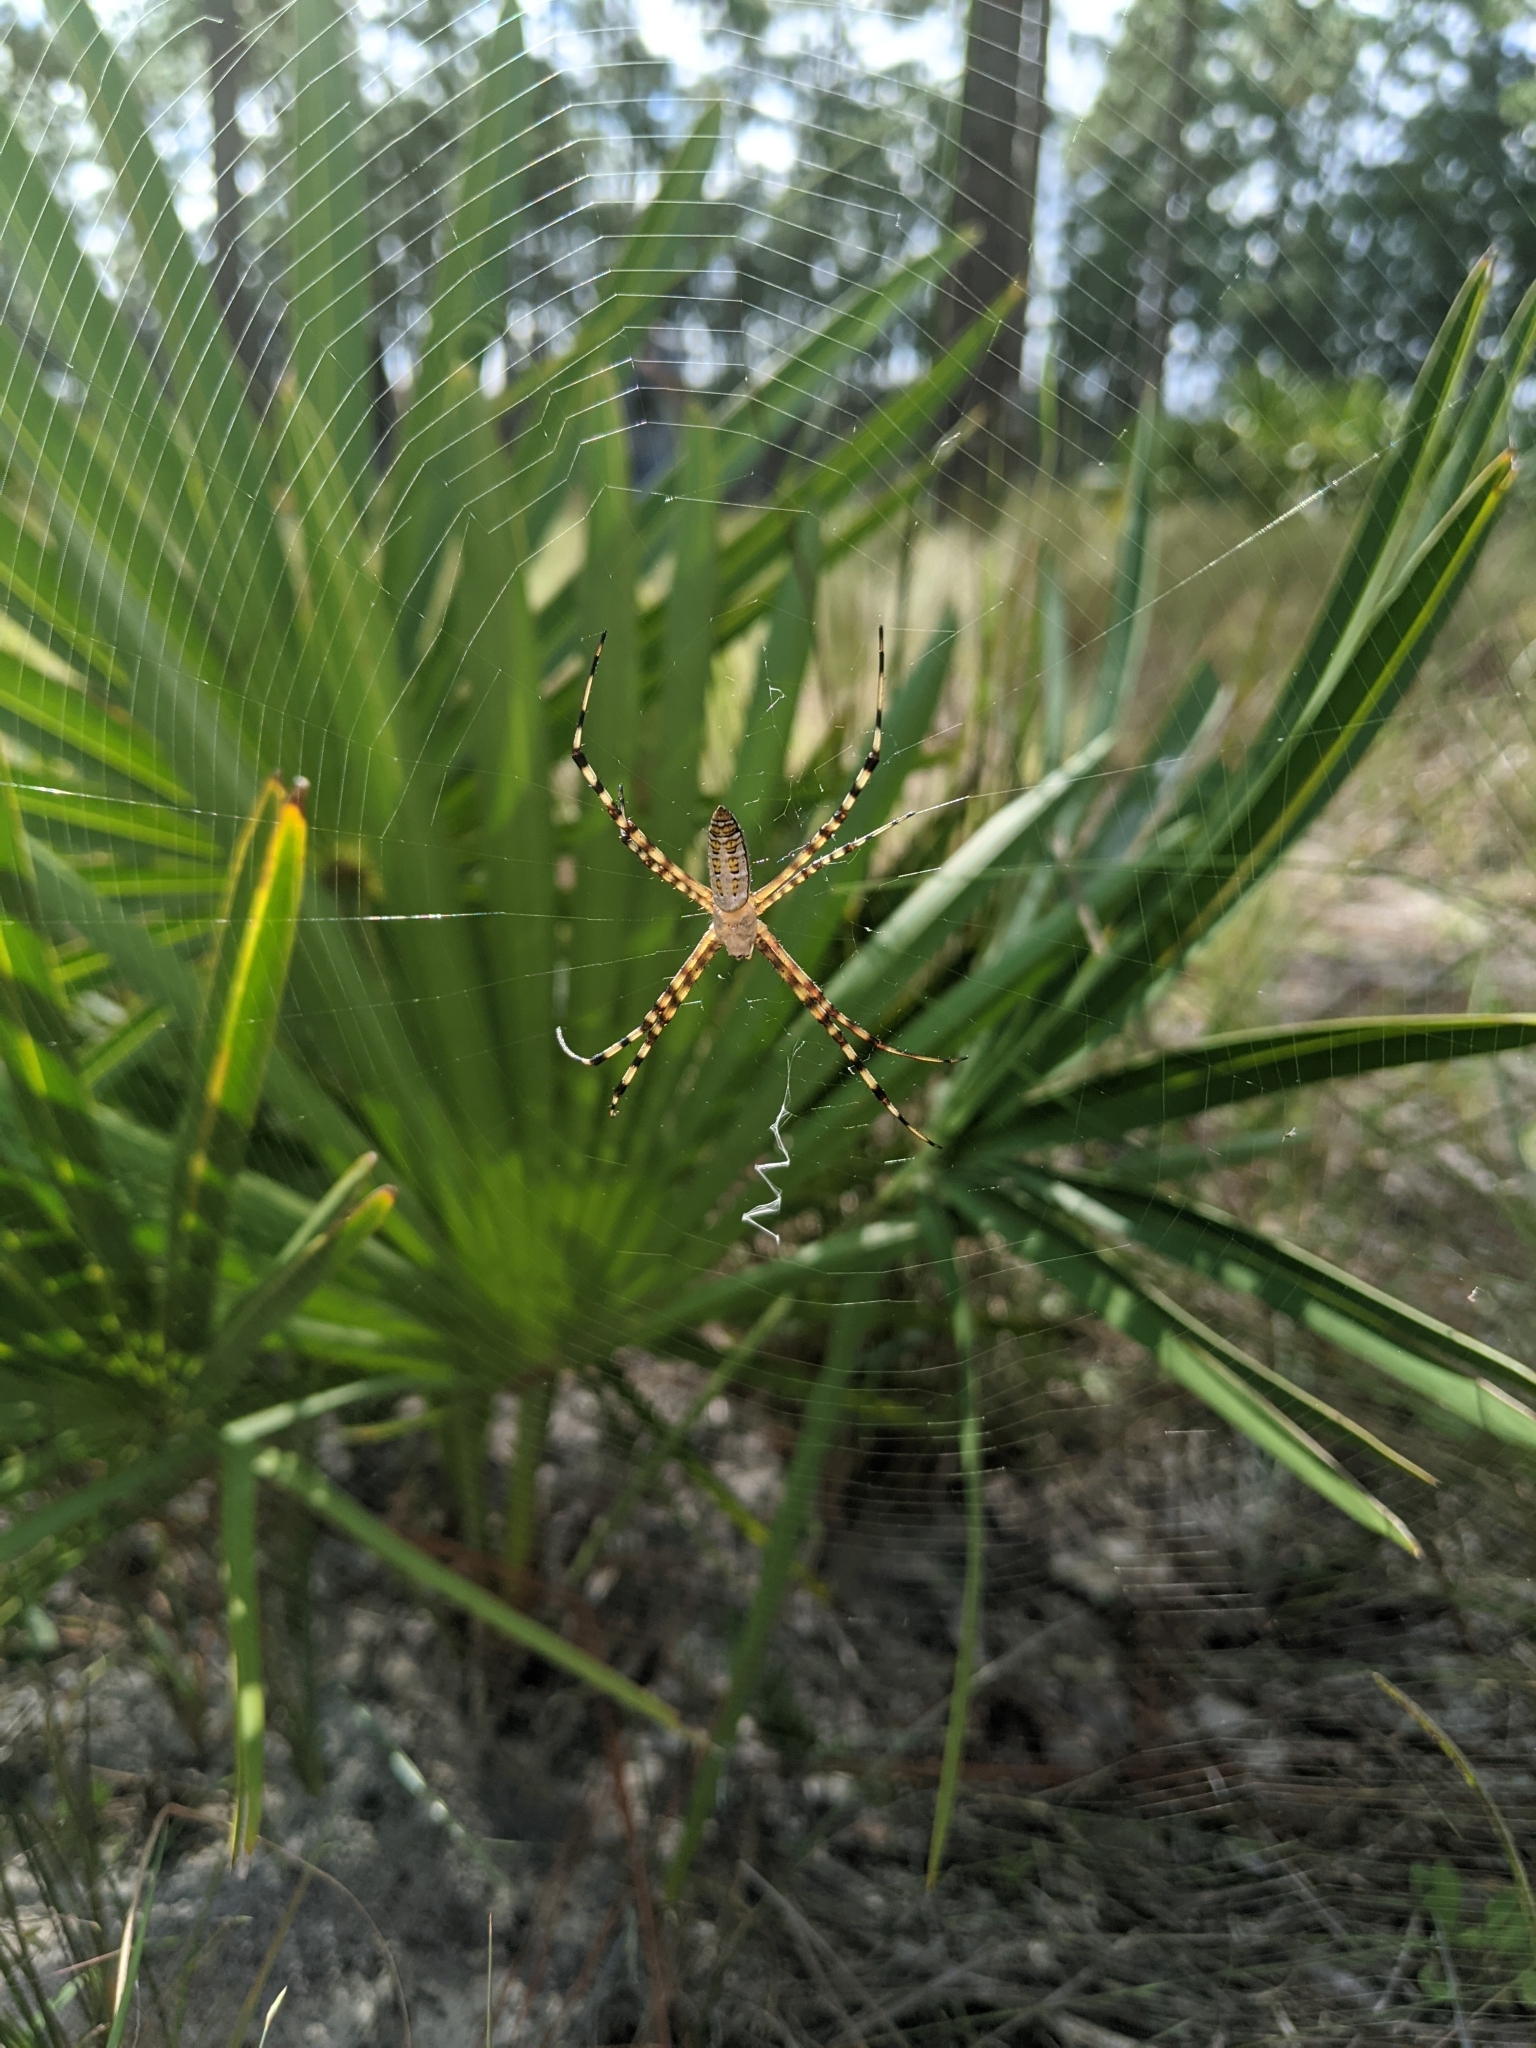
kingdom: Animalia
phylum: Arthropoda
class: Arachnida
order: Araneae
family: Araneidae
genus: Argiope
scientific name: Argiope trifasciata
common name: Banded garden spider
